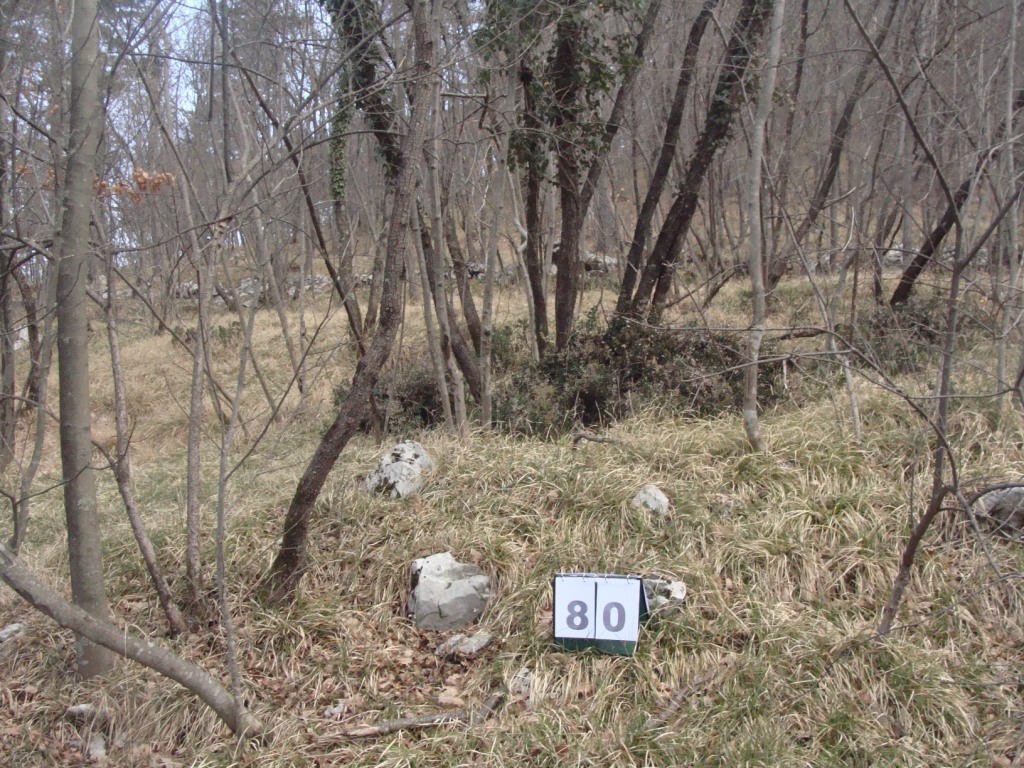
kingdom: Plantae
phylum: Tracheophyta
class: Magnoliopsida
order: Cornales
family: Cornaceae
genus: Cornus
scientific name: Cornus mas
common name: Cornelian-cherry
